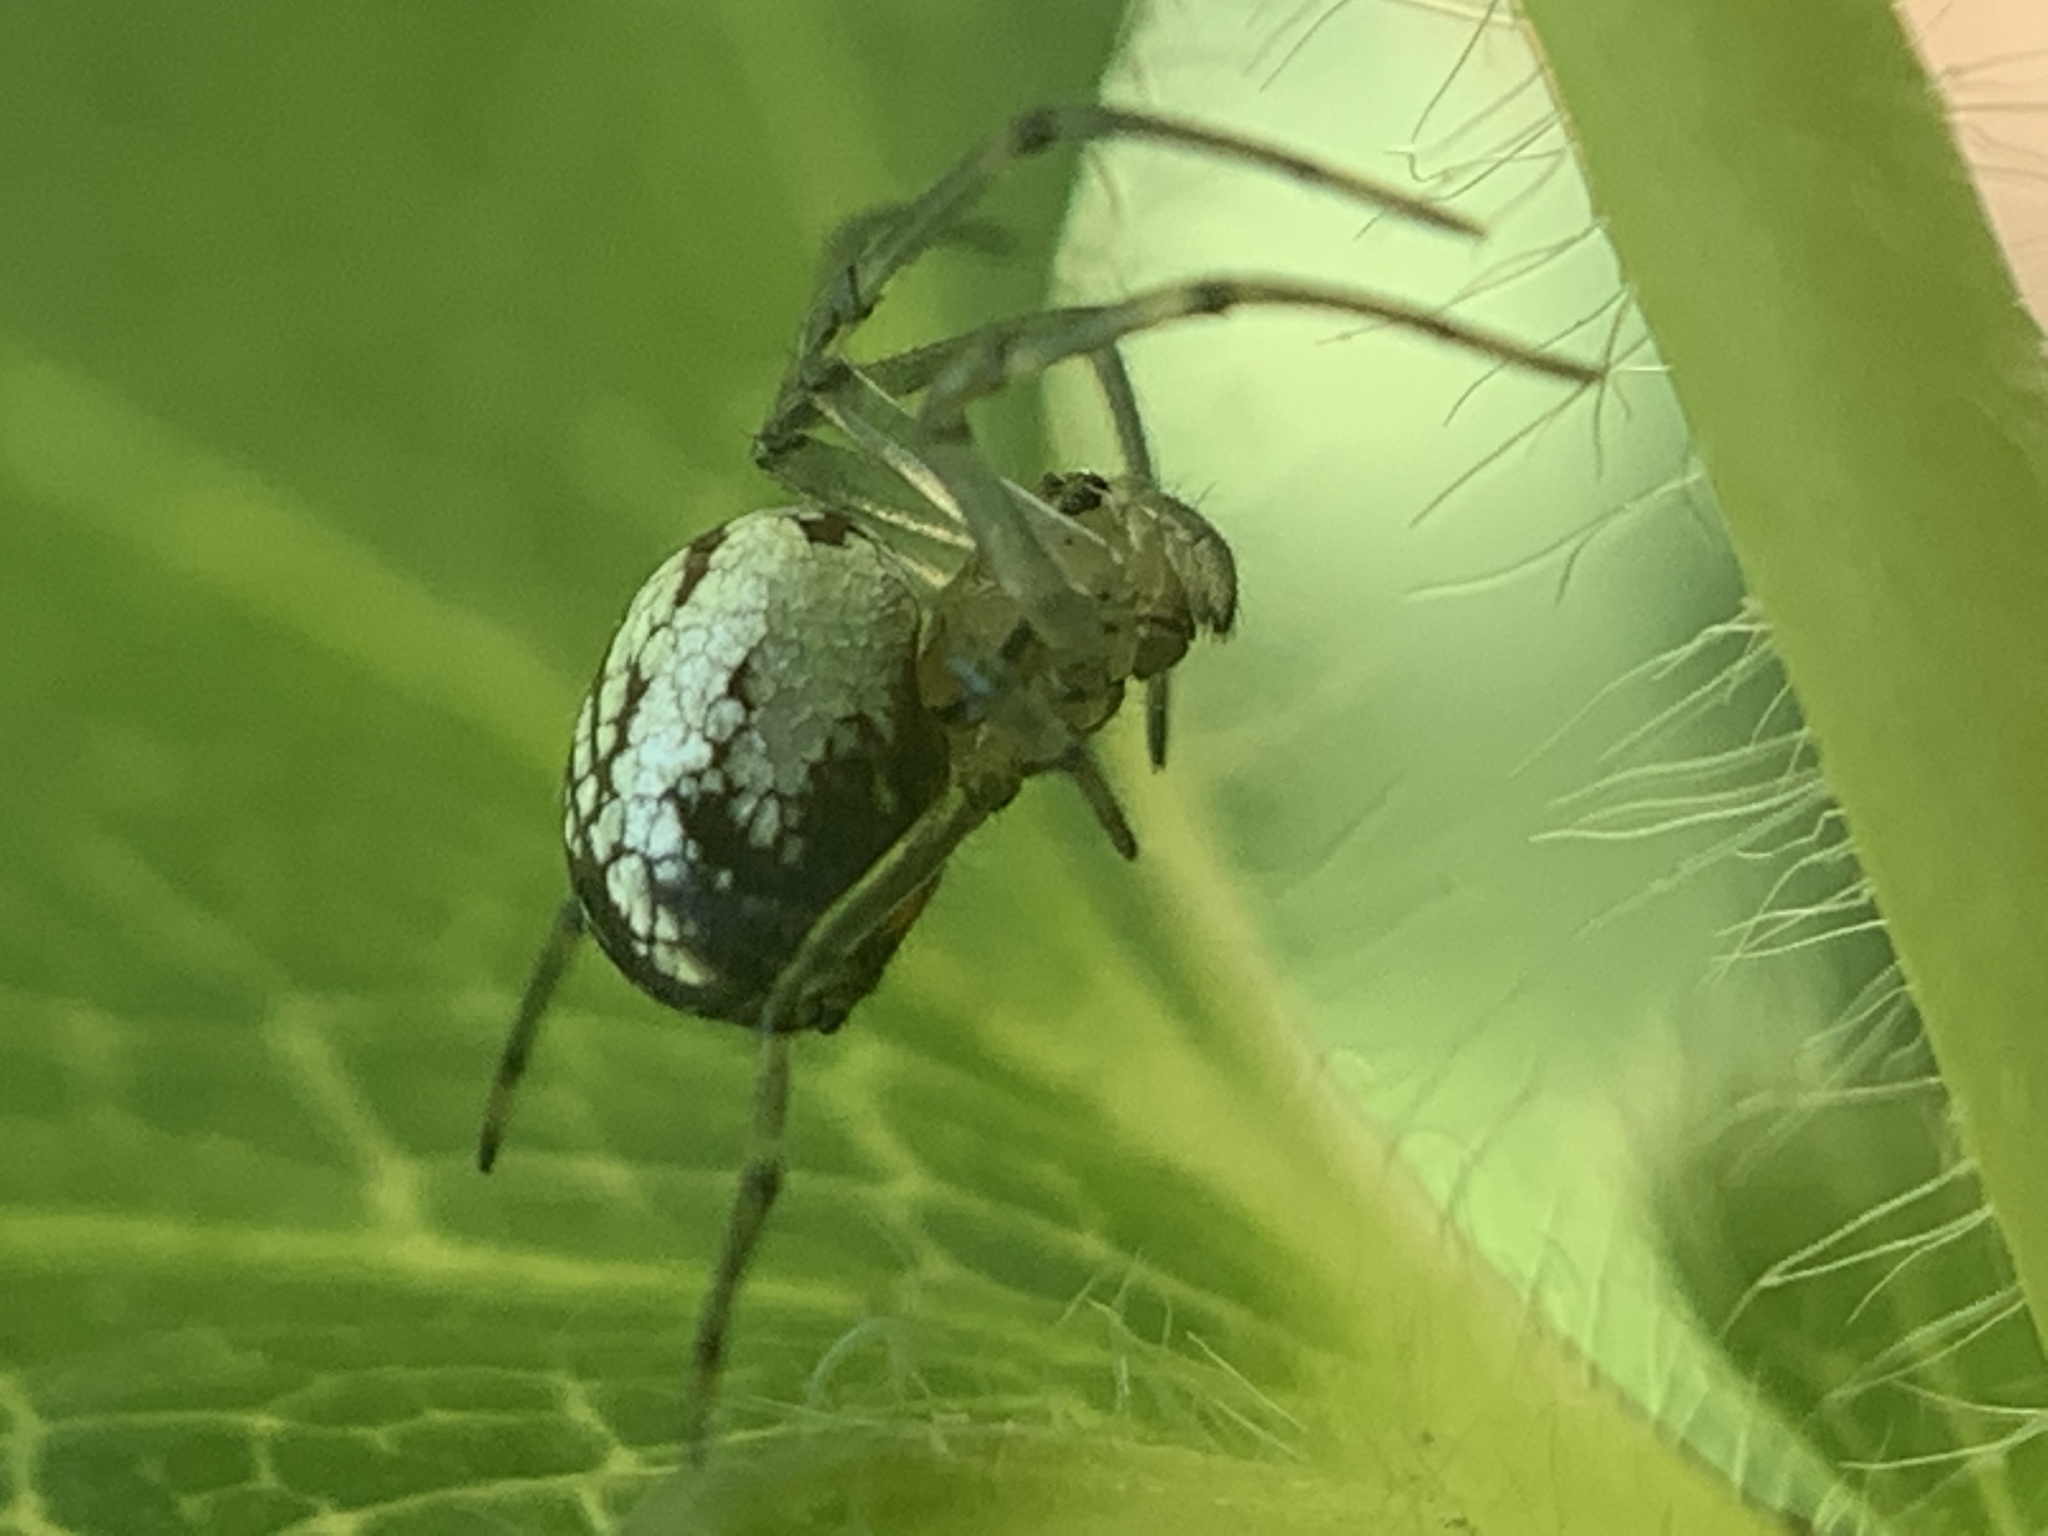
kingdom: Animalia
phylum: Arthropoda
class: Arachnida
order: Araneae
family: Tetragnathidae
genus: Leucauge
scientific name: Leucauge venusta
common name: Longjawed orb weavers
